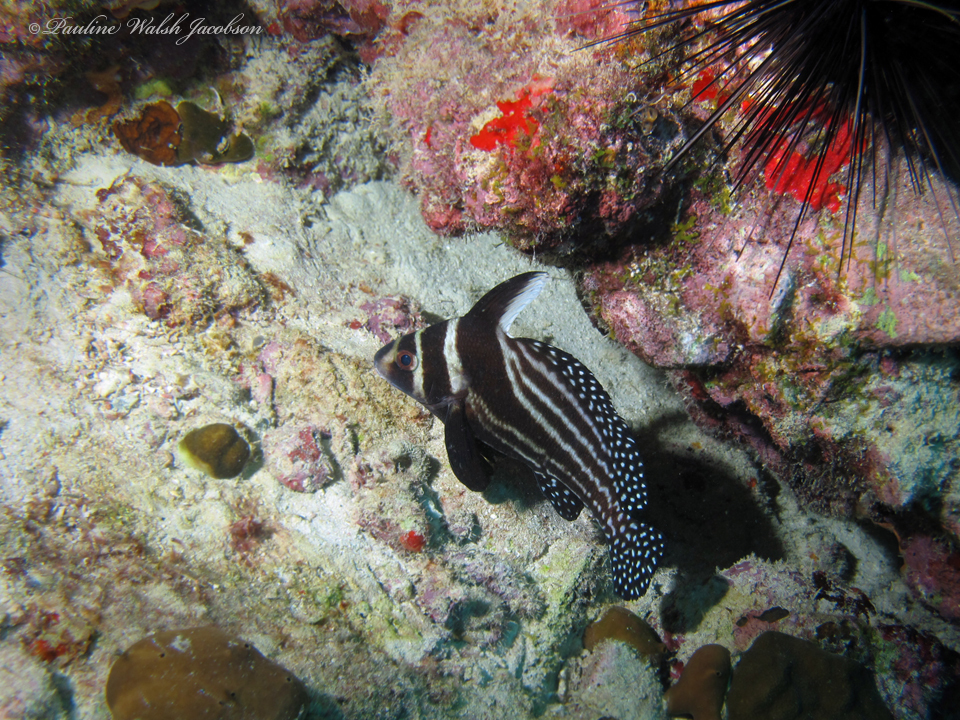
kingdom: Animalia
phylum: Chordata
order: Perciformes
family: Sciaenidae
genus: Equetus
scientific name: Equetus punctatus
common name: Spotted drum
